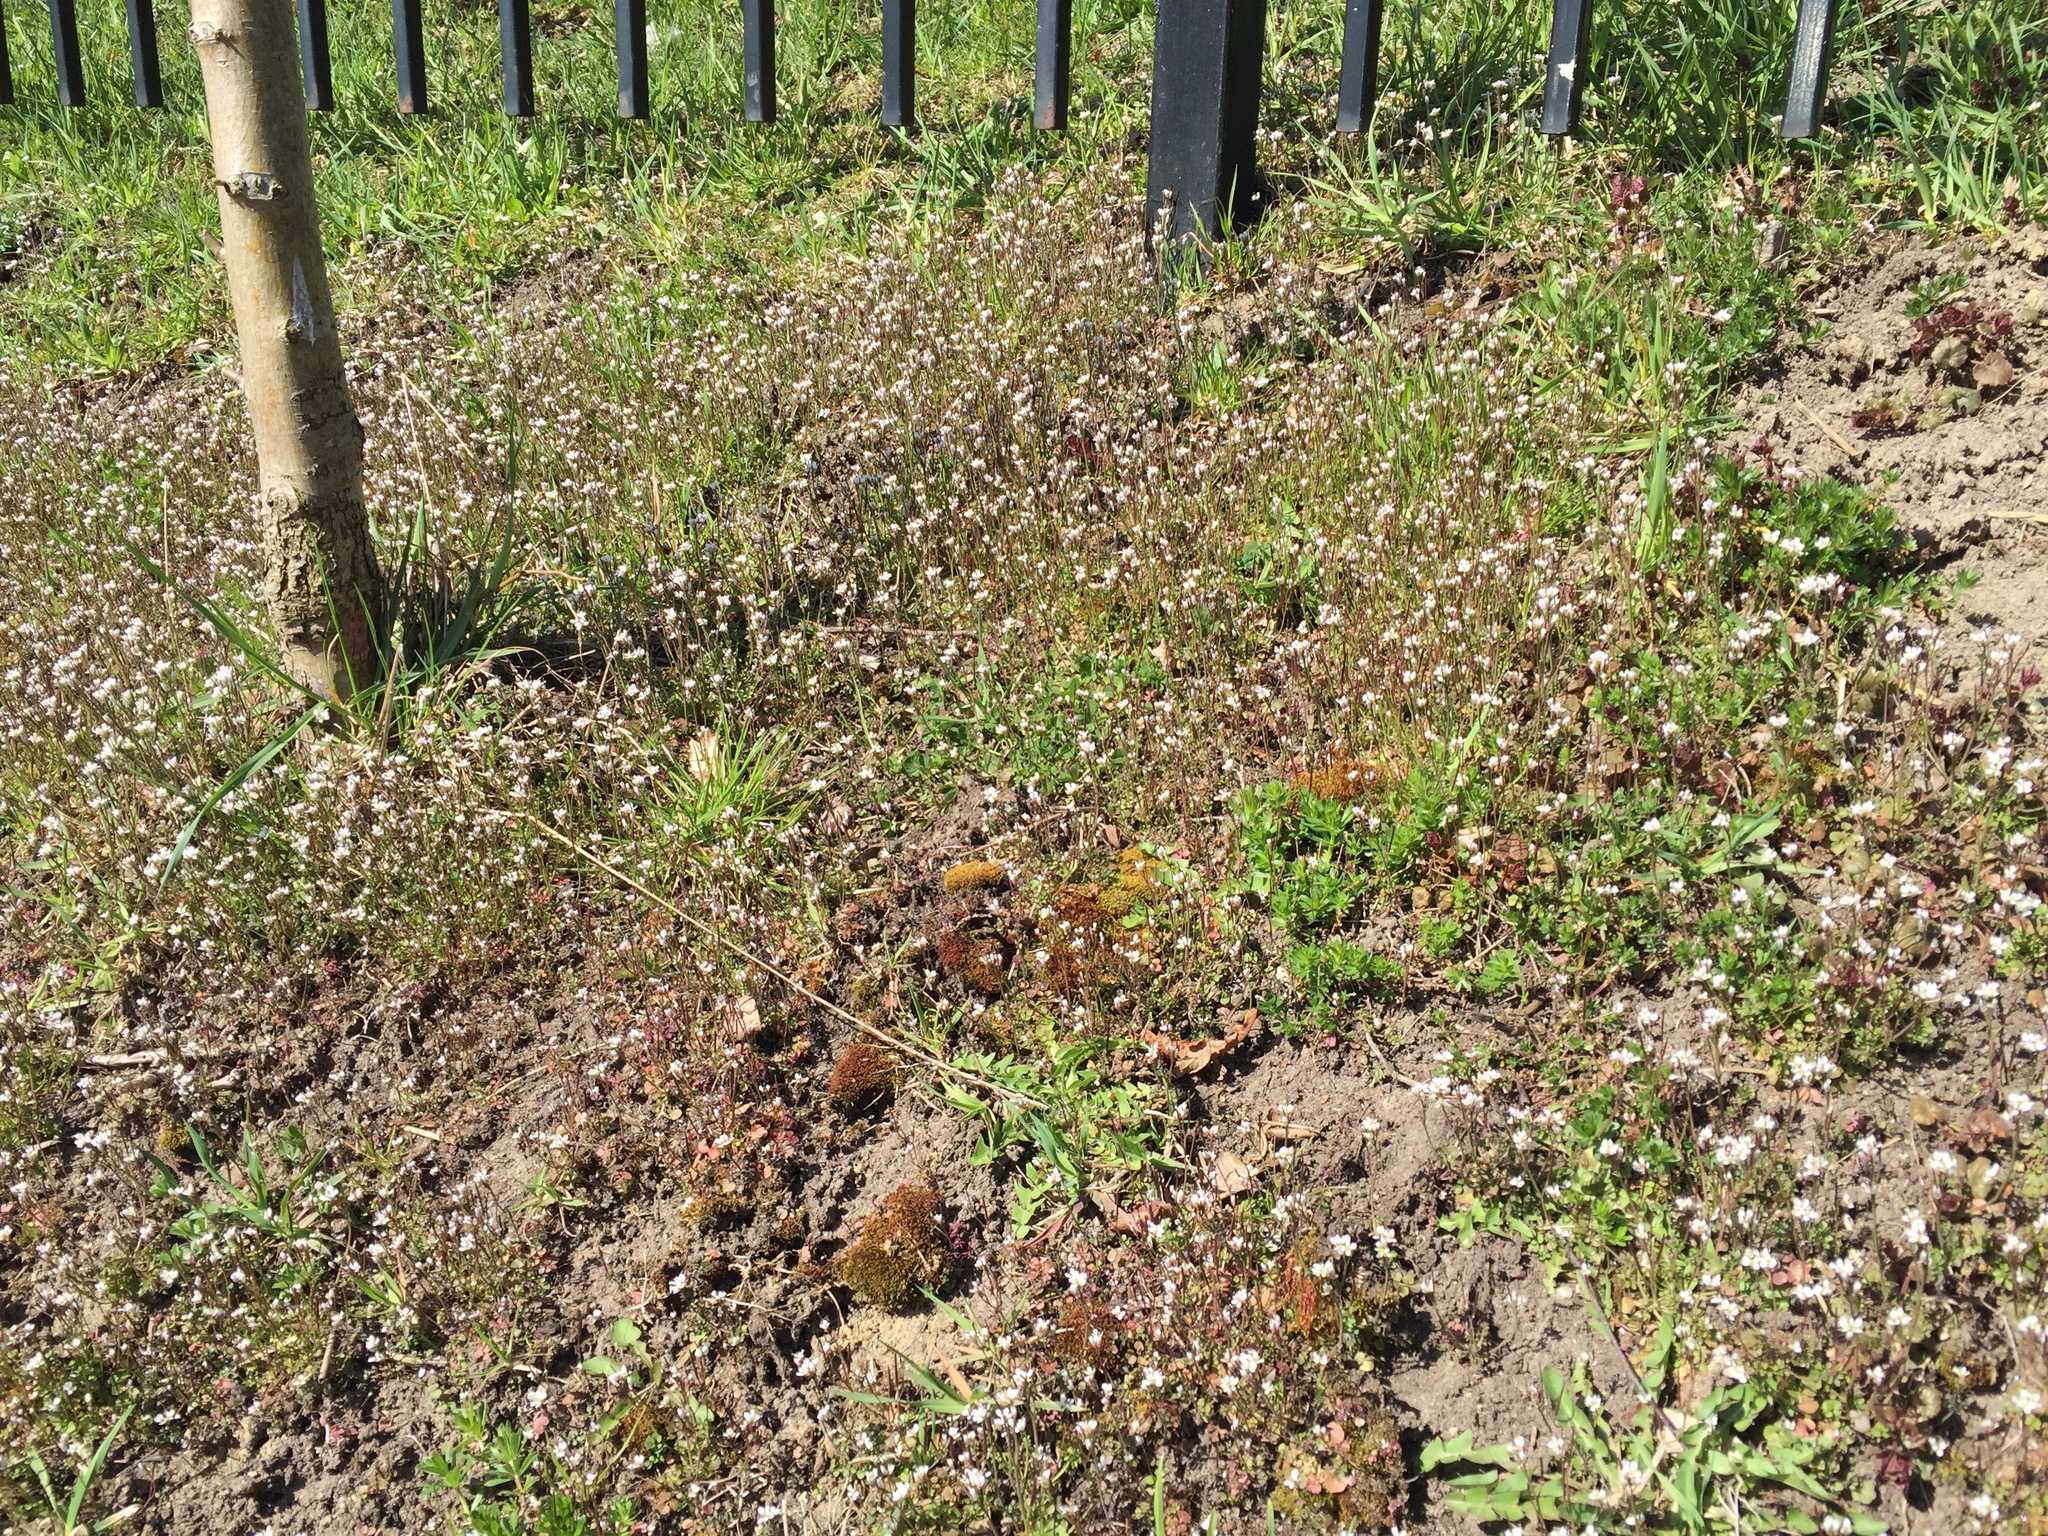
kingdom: Plantae
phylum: Tracheophyta
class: Magnoliopsida
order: Brassicales
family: Brassicaceae
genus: Cardamine
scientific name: Cardamine hirsuta
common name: Hairy bittercress
